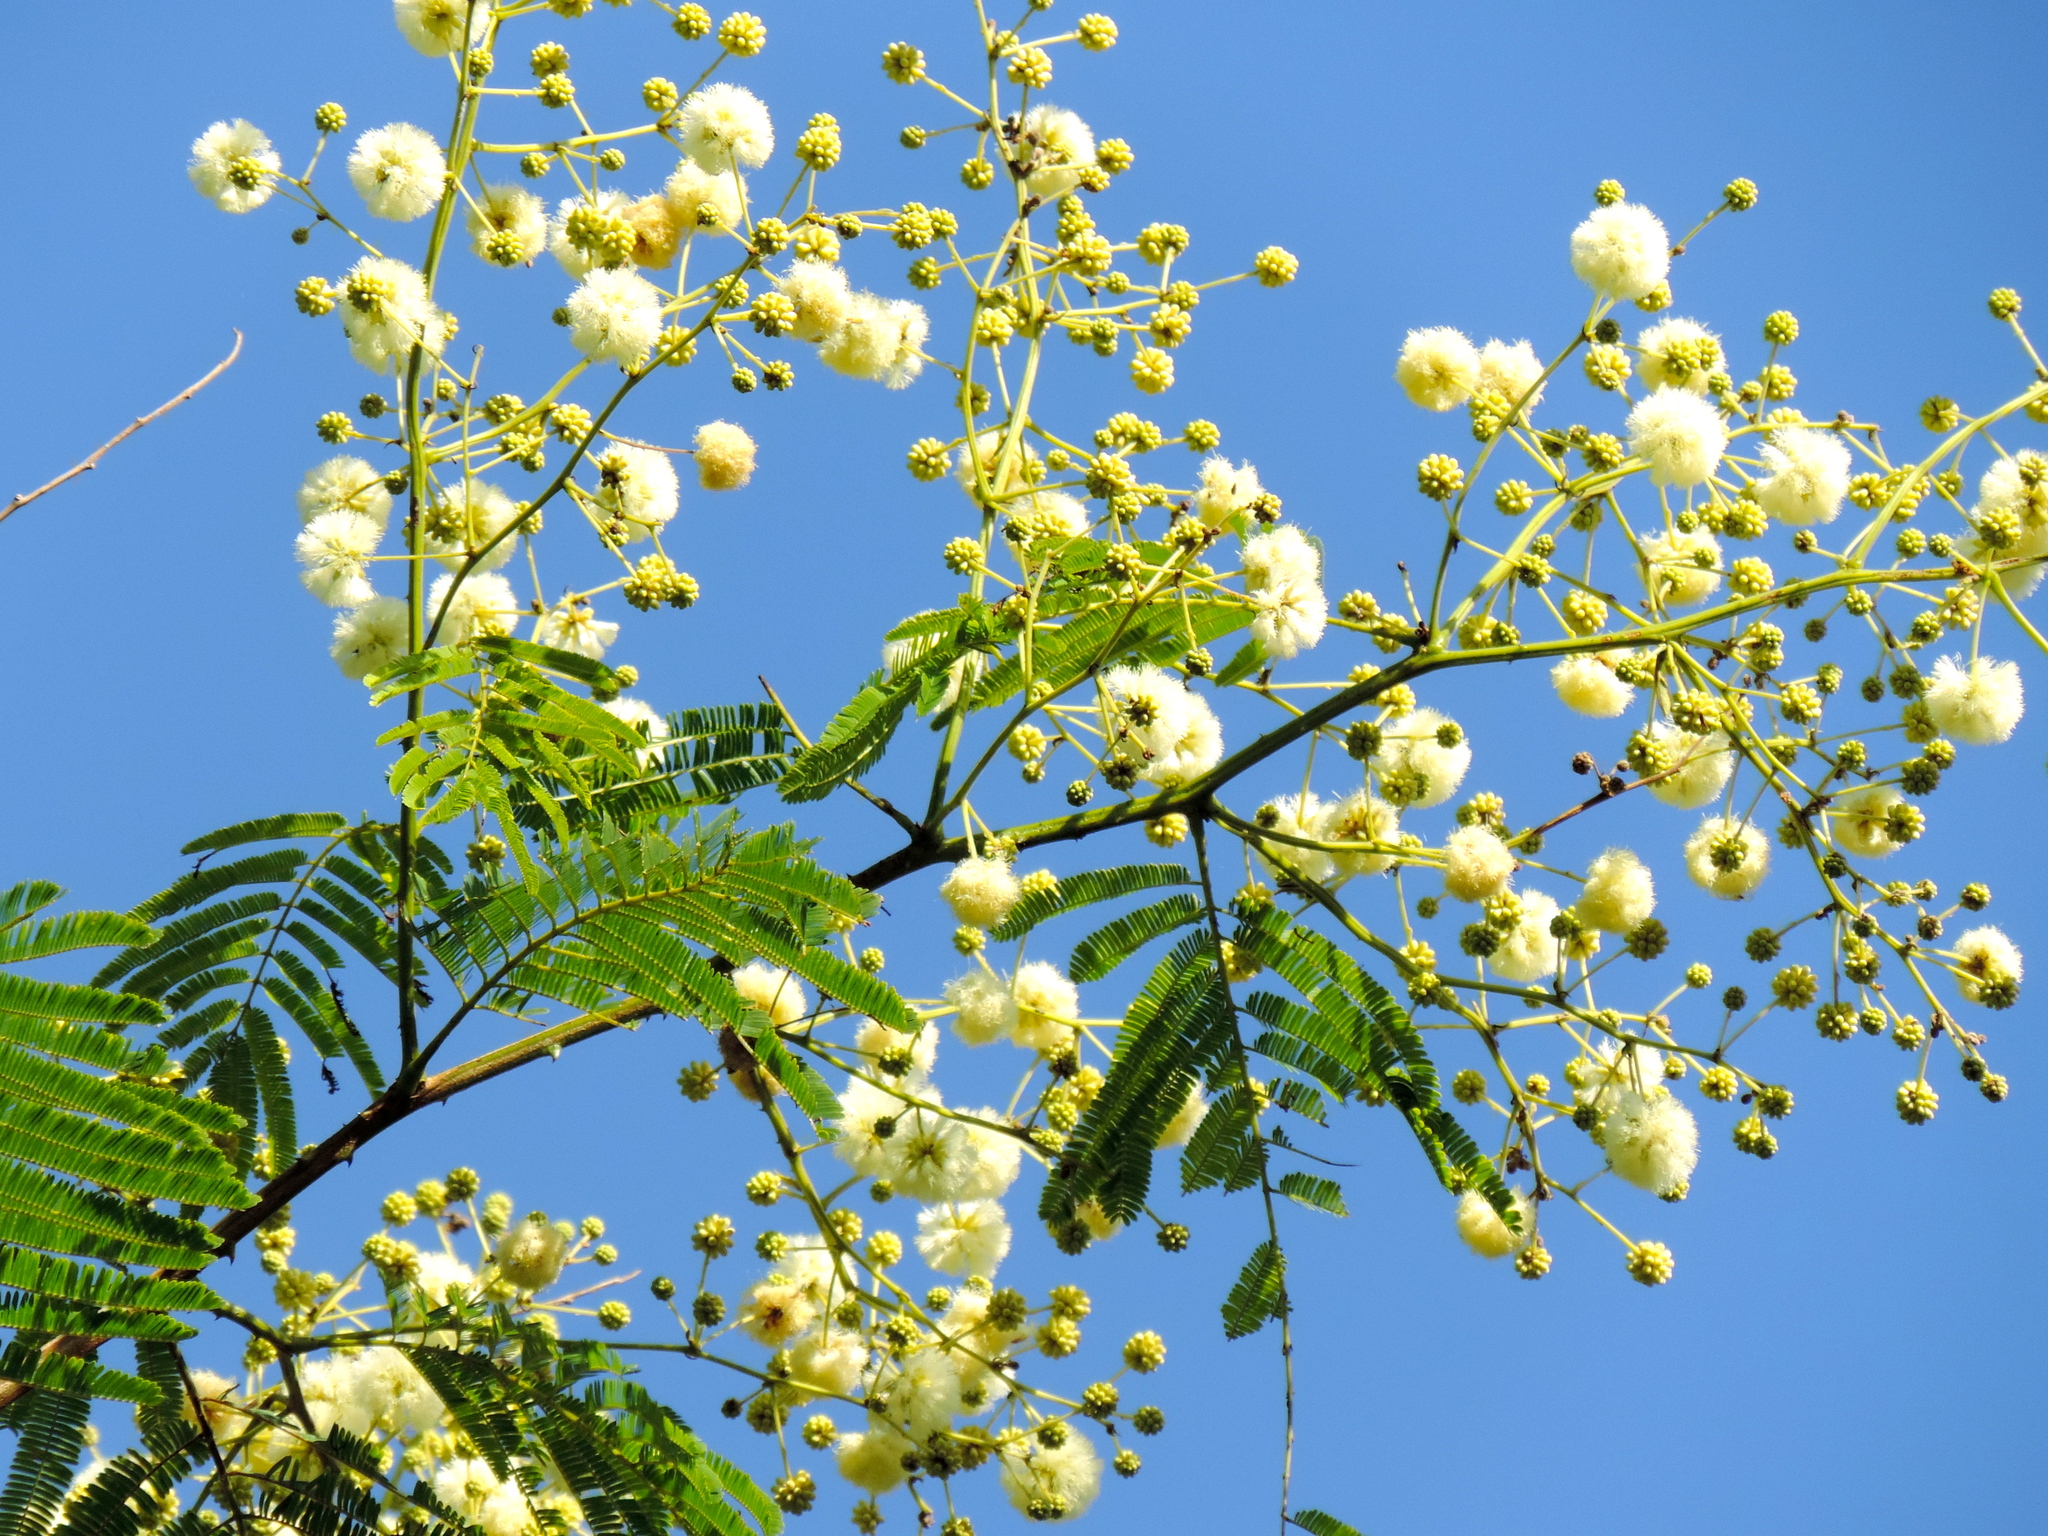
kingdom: Plantae
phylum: Tracheophyta
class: Magnoliopsida
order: Fabales
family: Fabaceae
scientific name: Fabaceae
